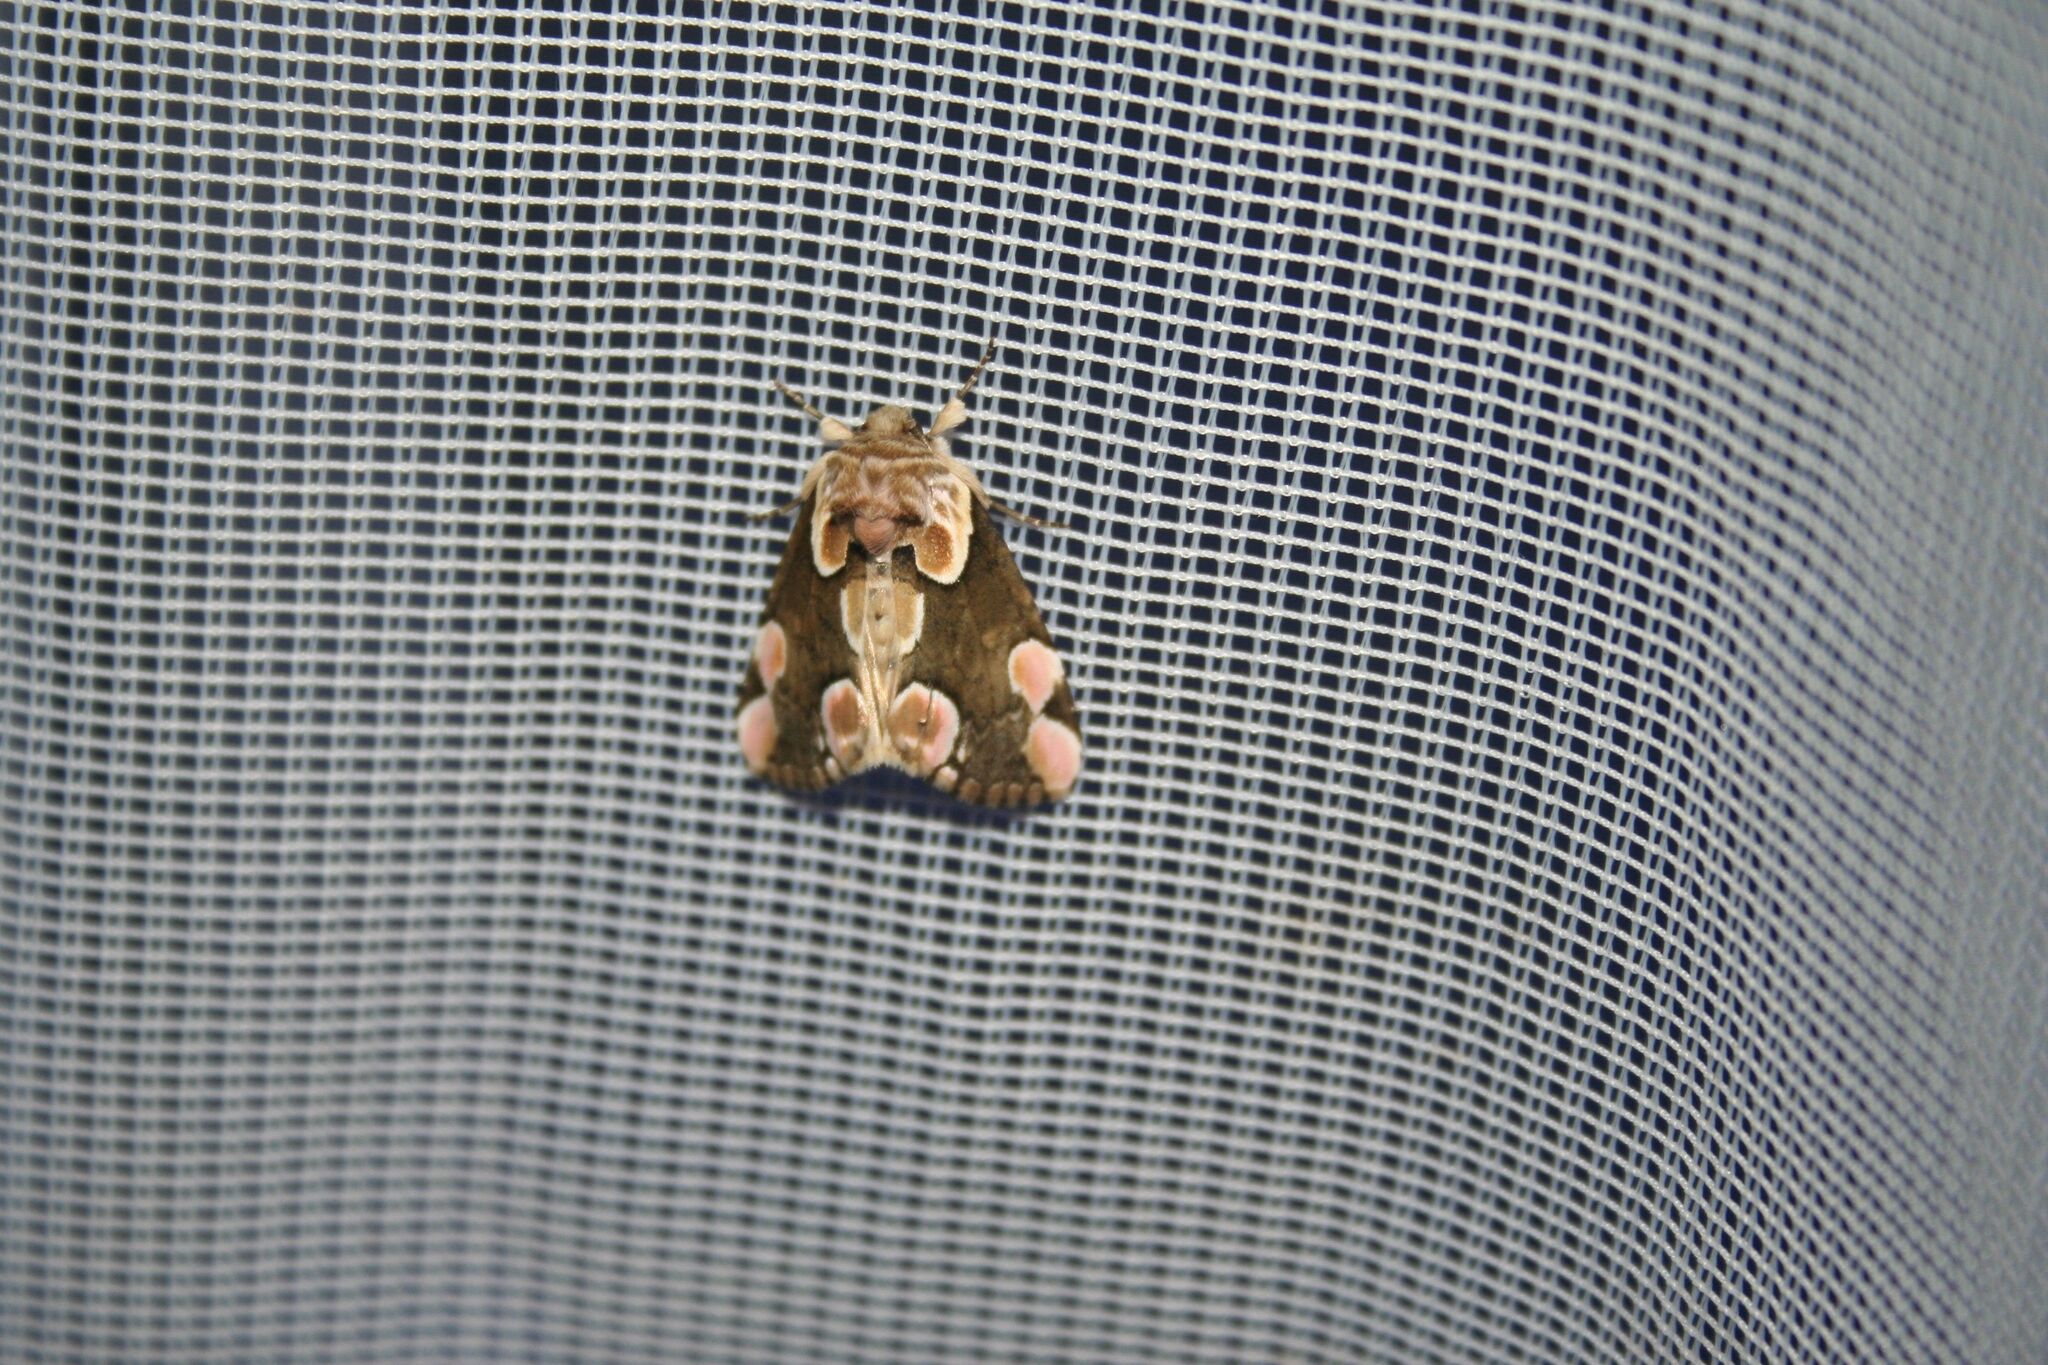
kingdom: Animalia
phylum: Arthropoda
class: Insecta
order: Lepidoptera
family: Drepanidae
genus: Thyatira
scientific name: Thyatira batis
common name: Peach blossom
